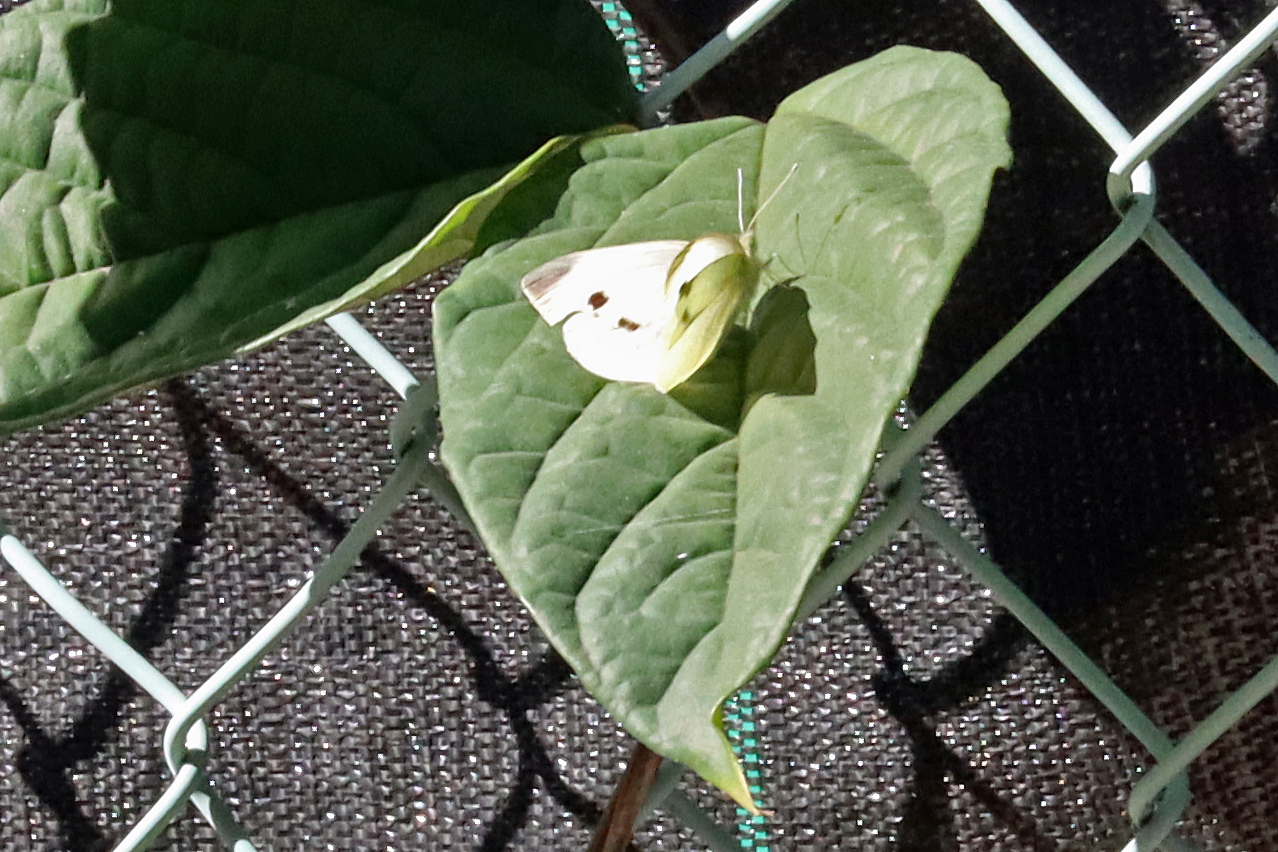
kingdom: Animalia
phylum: Arthropoda
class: Insecta
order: Lepidoptera
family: Pieridae
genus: Pieris
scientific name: Pieris rapae
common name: Small white
